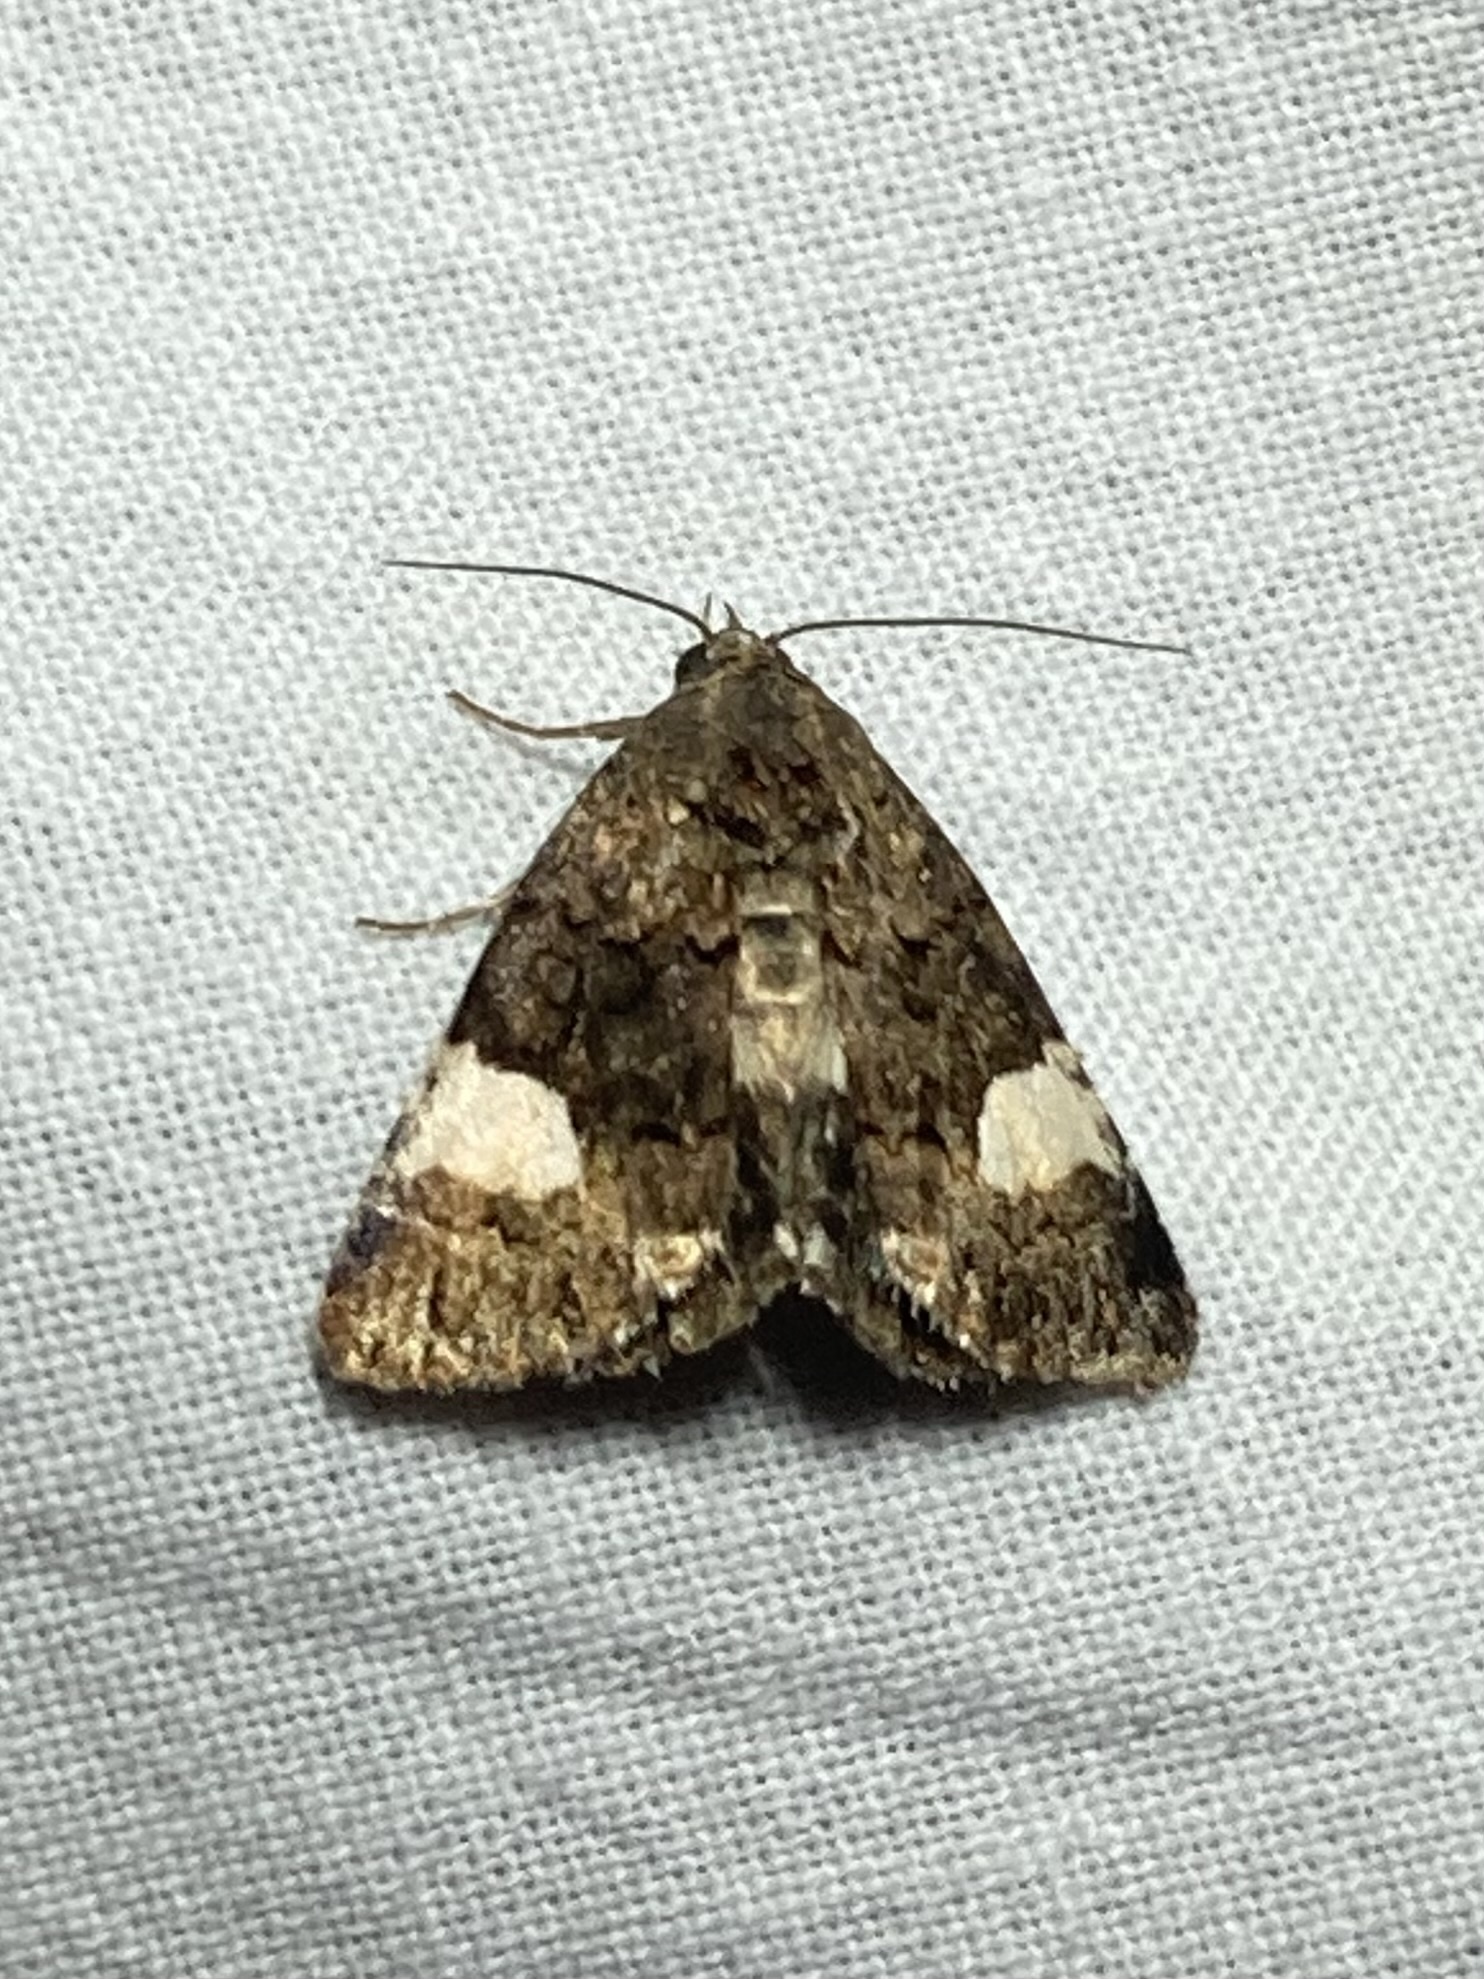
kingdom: Animalia
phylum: Arthropoda
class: Insecta
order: Lepidoptera
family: Erebidae
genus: Tyta
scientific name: Tyta luctuosa
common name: Four-spotted
